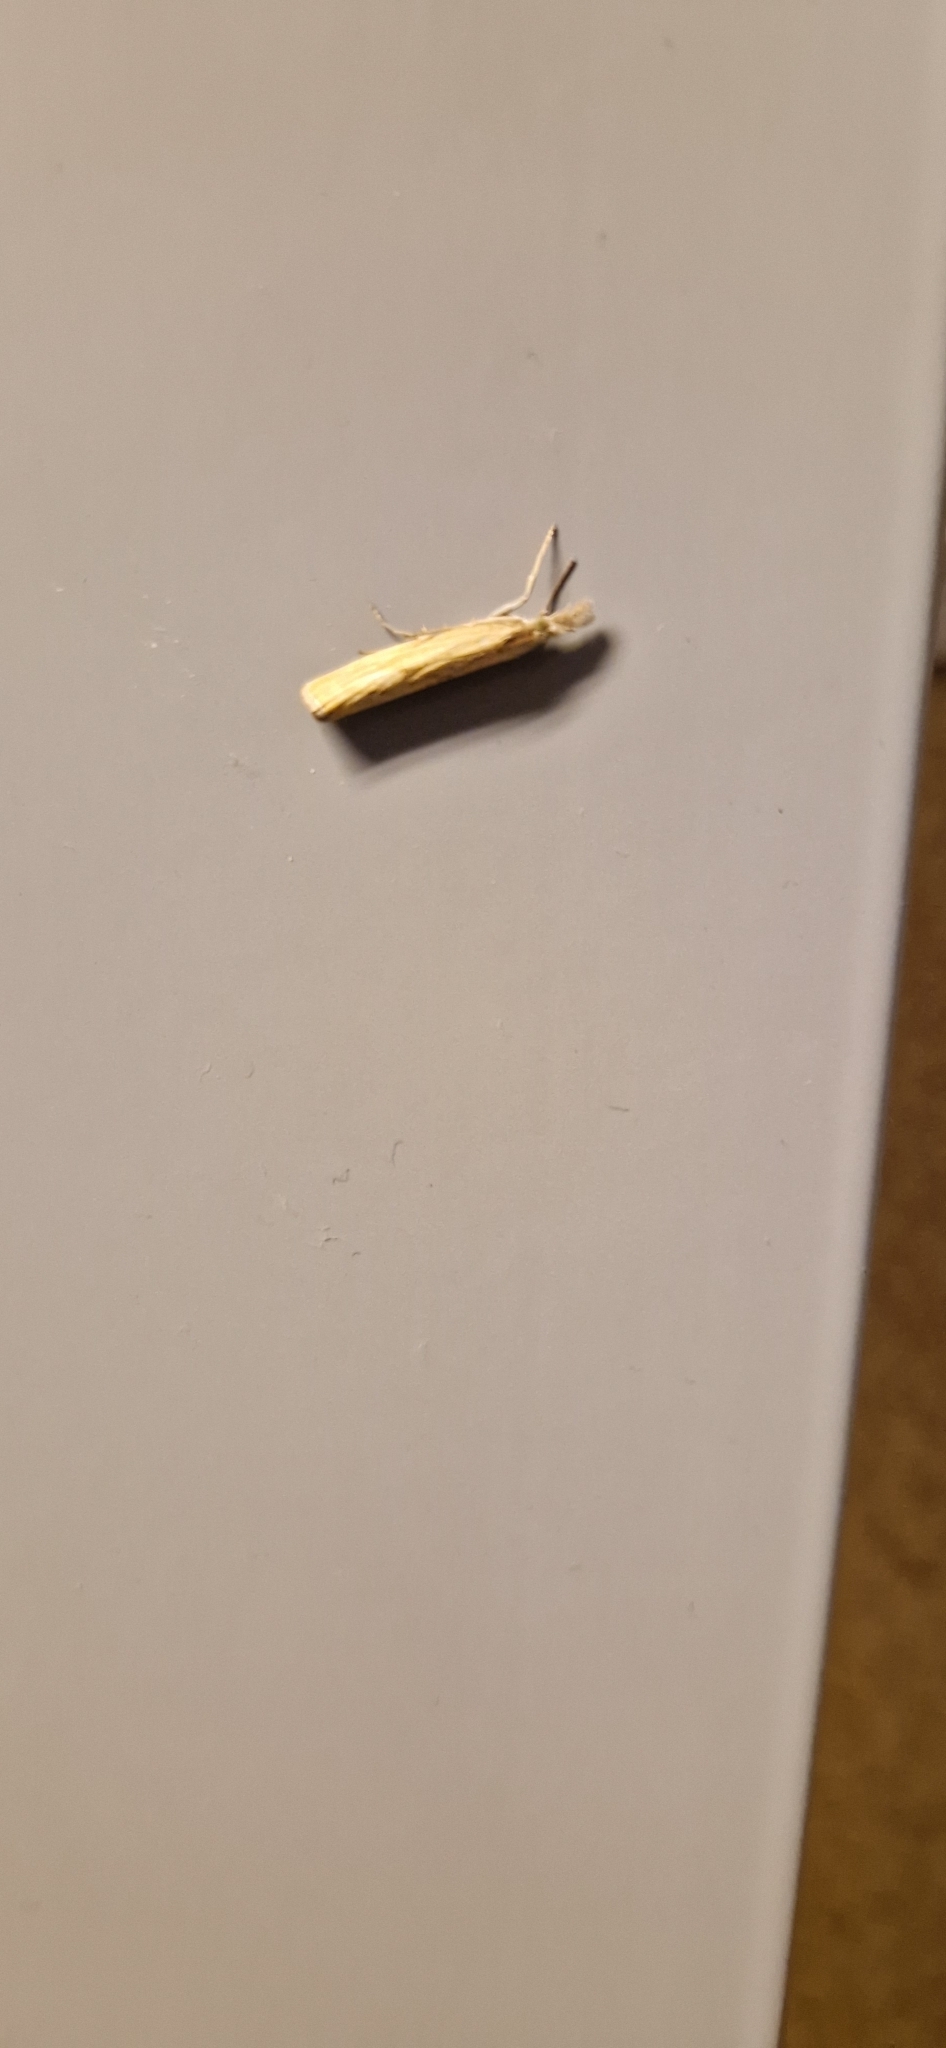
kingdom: Animalia
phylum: Arthropoda
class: Insecta
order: Lepidoptera
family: Crambidae
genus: Agriphila
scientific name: Agriphila tristellus
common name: Common grass-veneer
